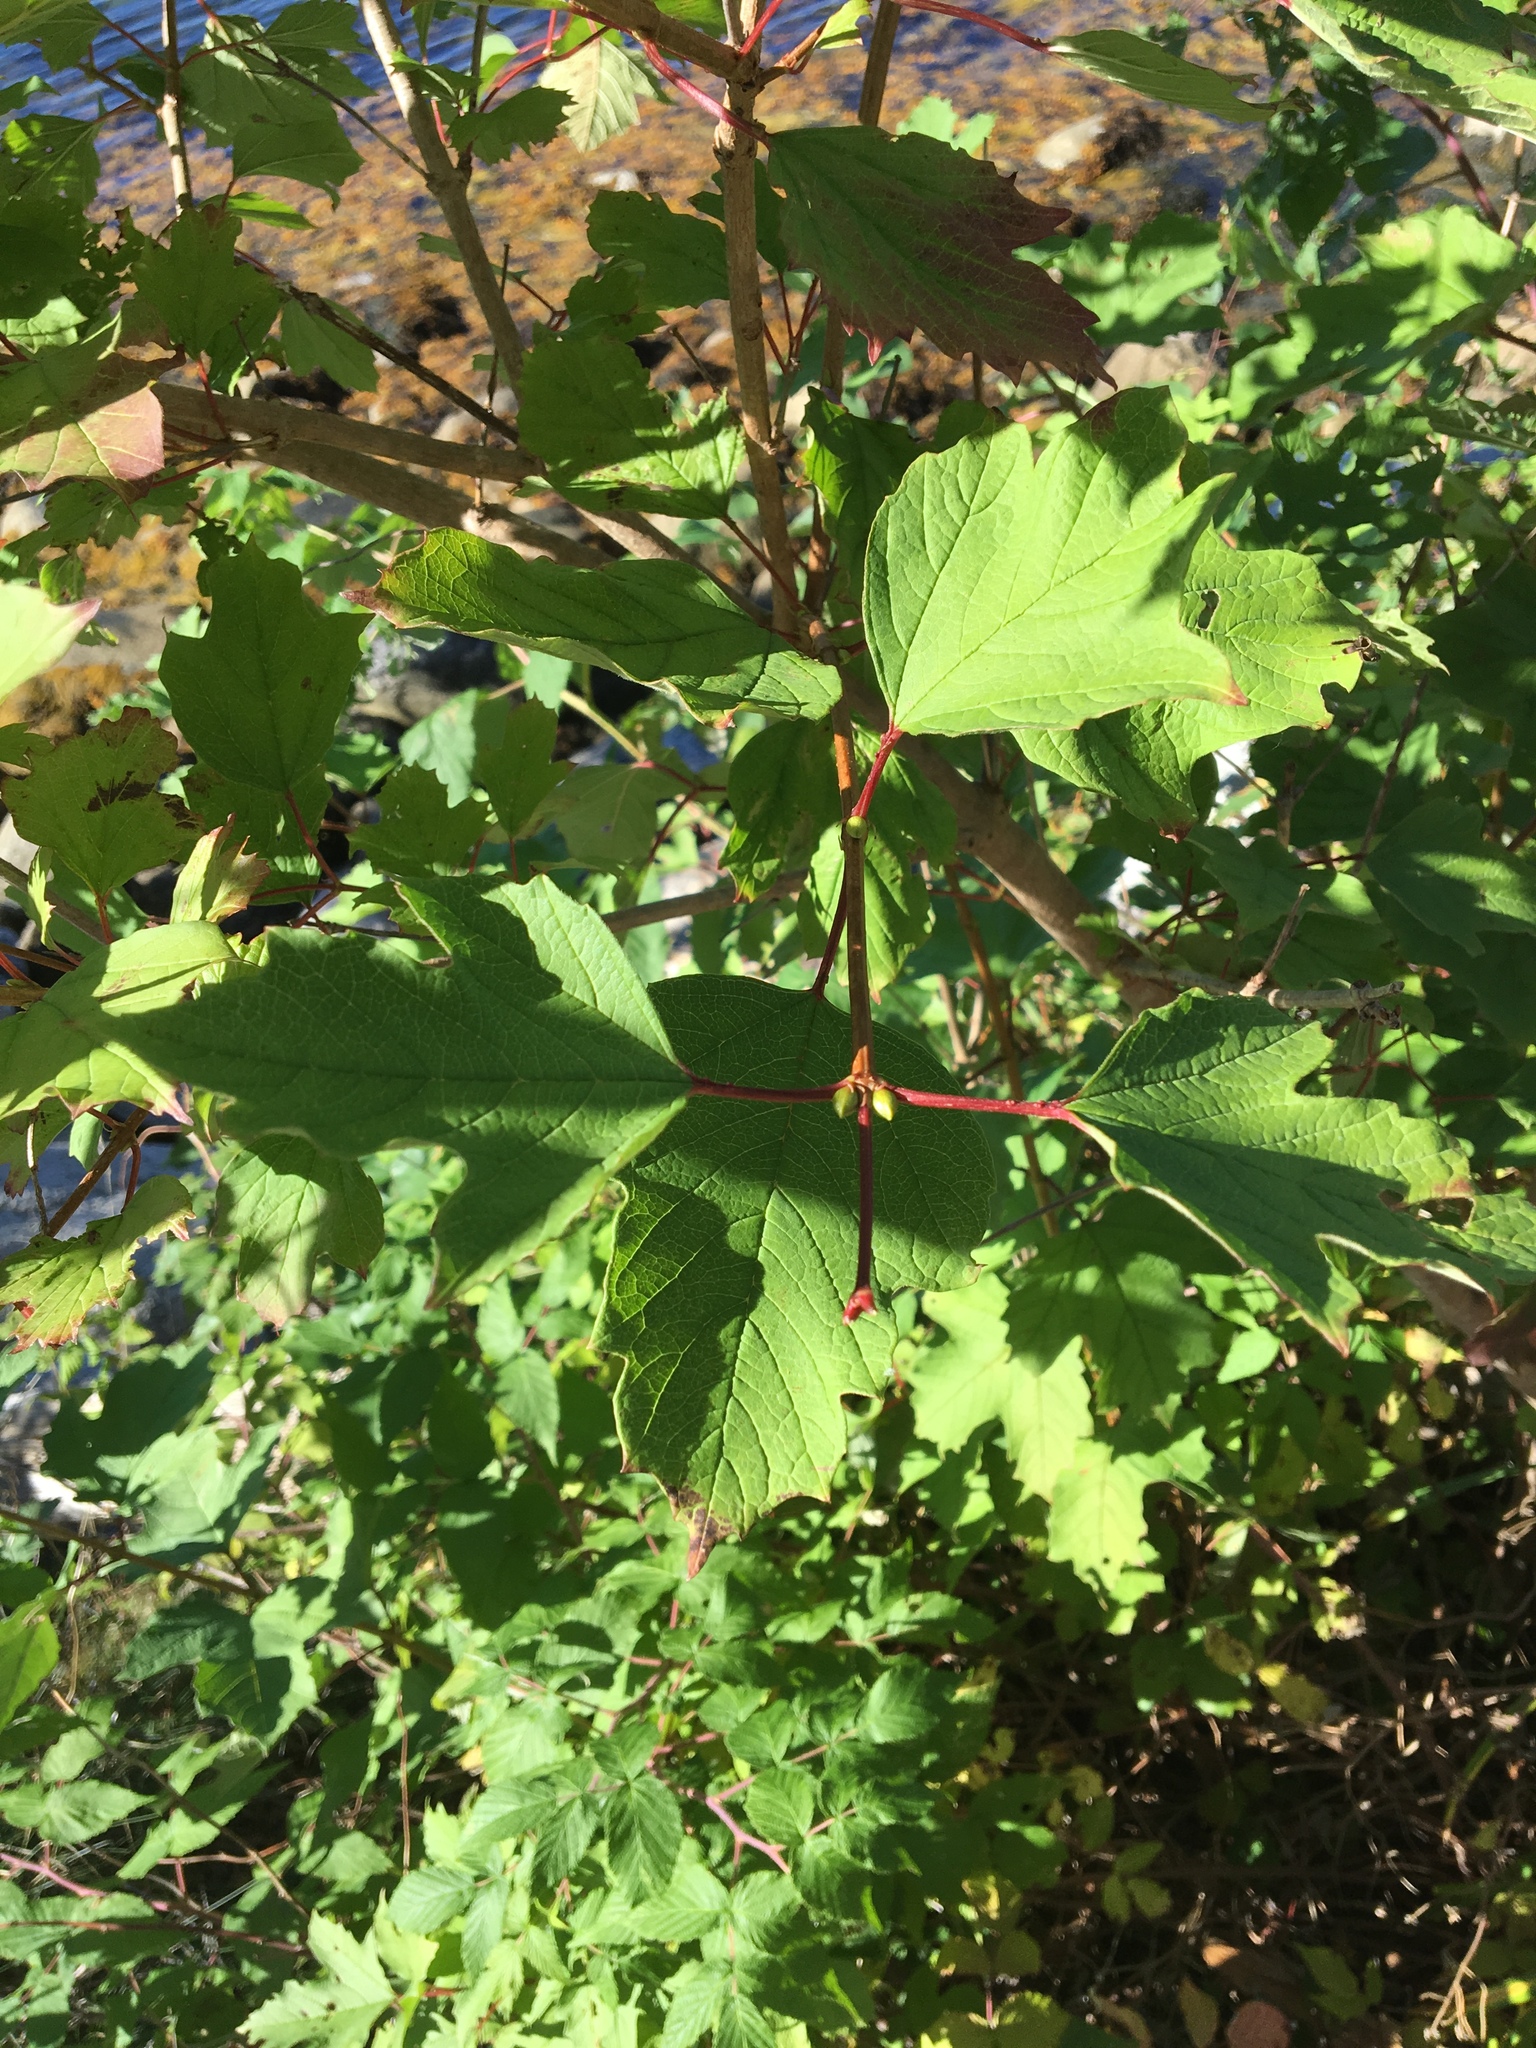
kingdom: Plantae
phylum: Tracheophyta
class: Magnoliopsida
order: Dipsacales
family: Viburnaceae
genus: Viburnum
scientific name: Viburnum opulus
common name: Guelder-rose
